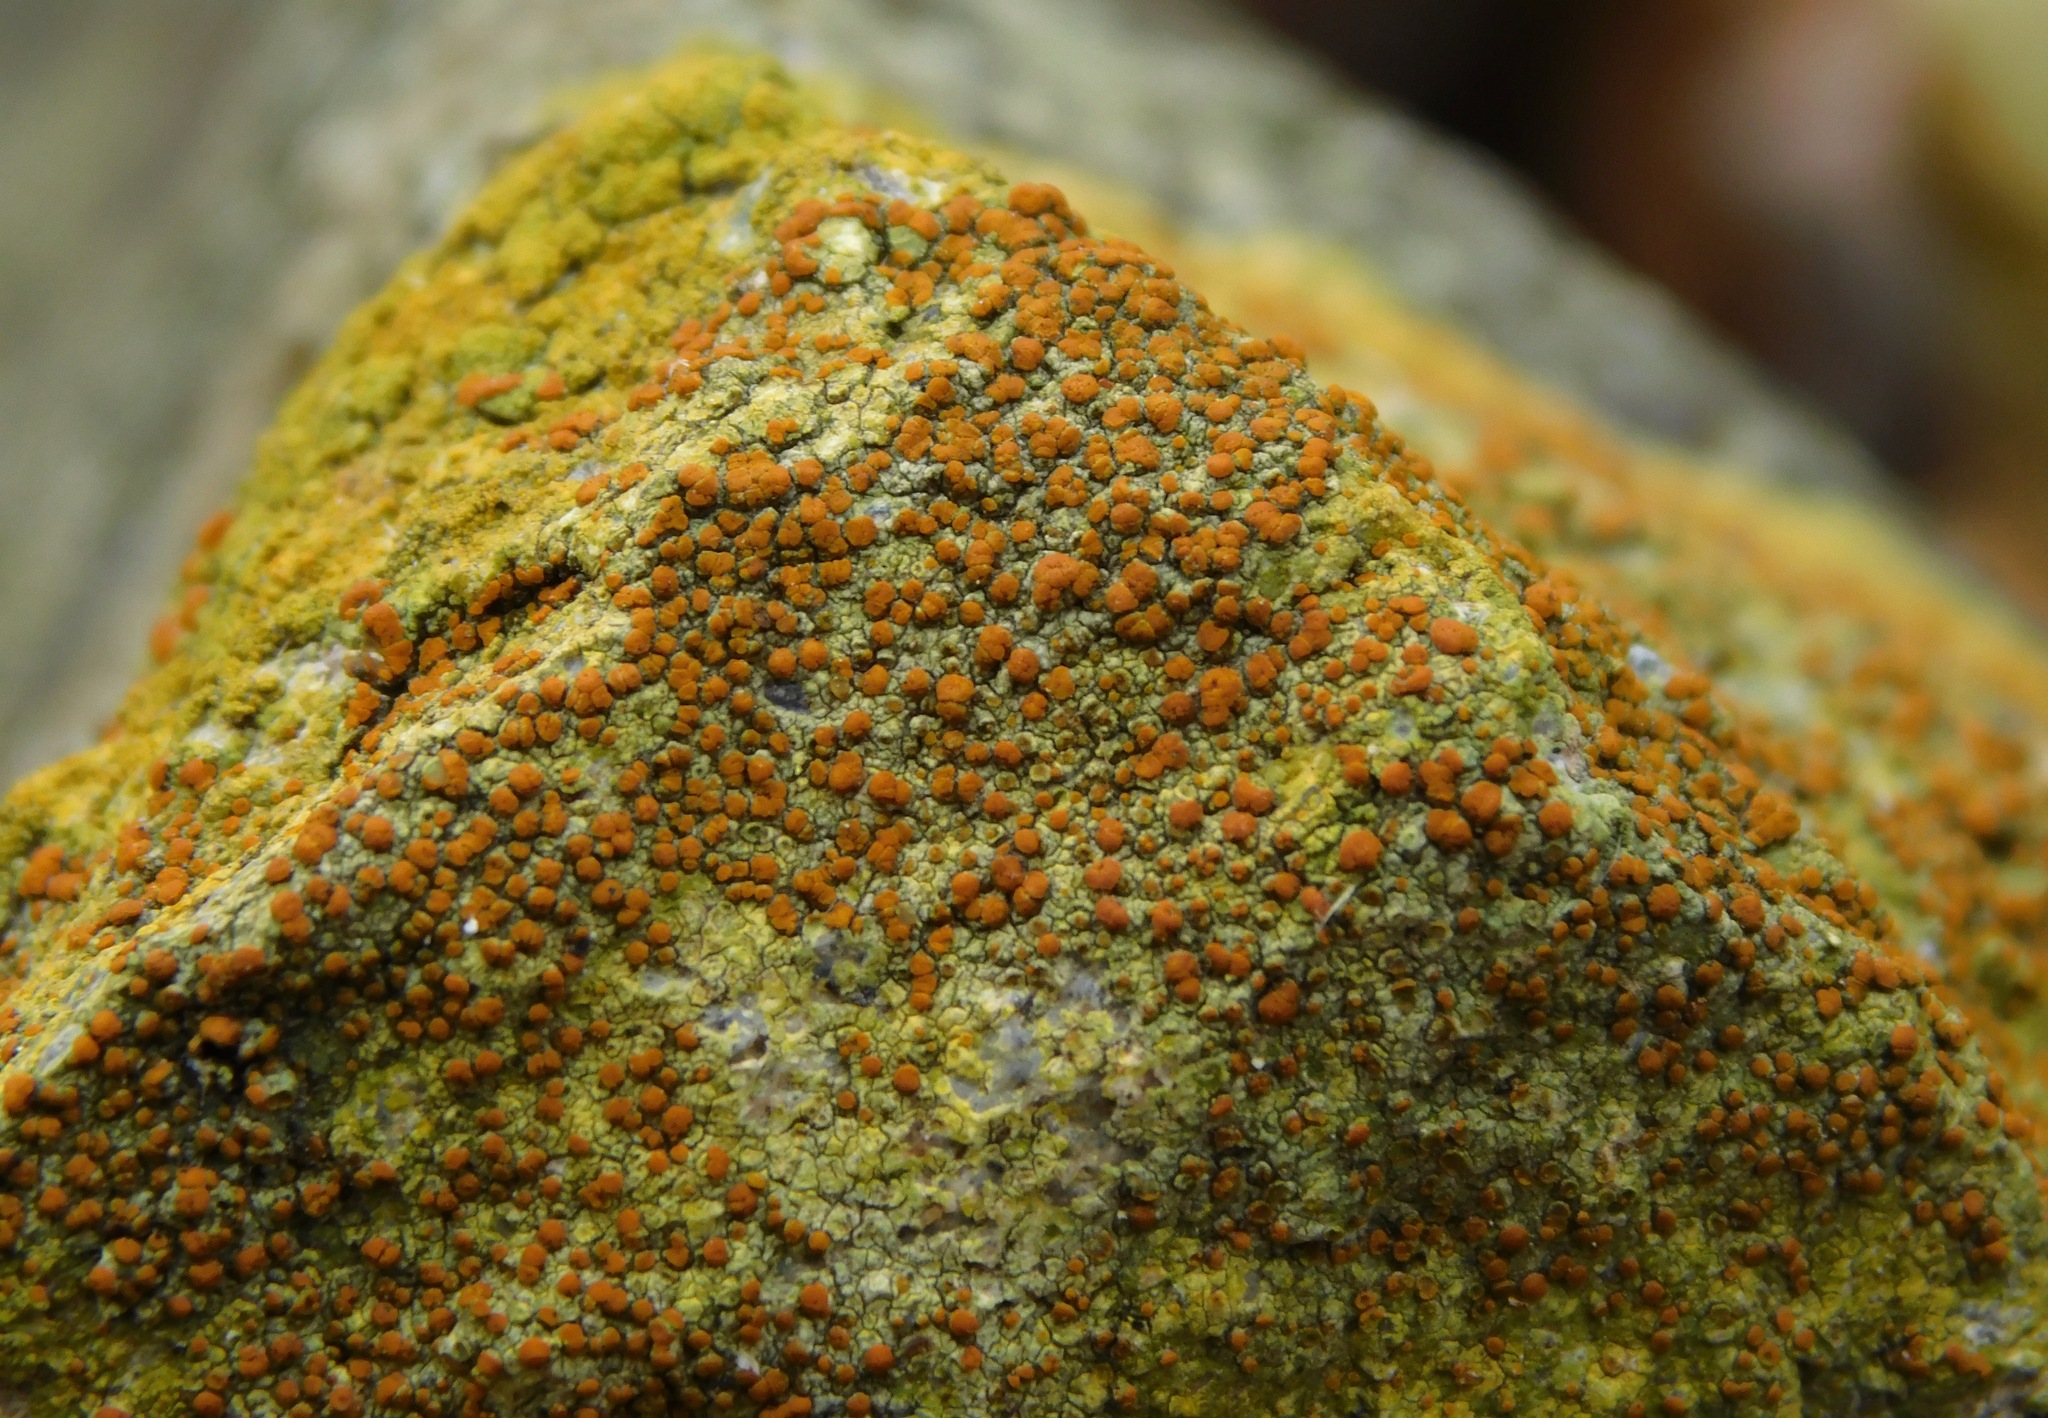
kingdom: Fungi
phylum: Ascomycota
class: Lecanoromycetes
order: Teloschistales
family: Teloschistaceae
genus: Gyalolechia
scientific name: Gyalolechia flavovirescens
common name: Sulphur firedot
